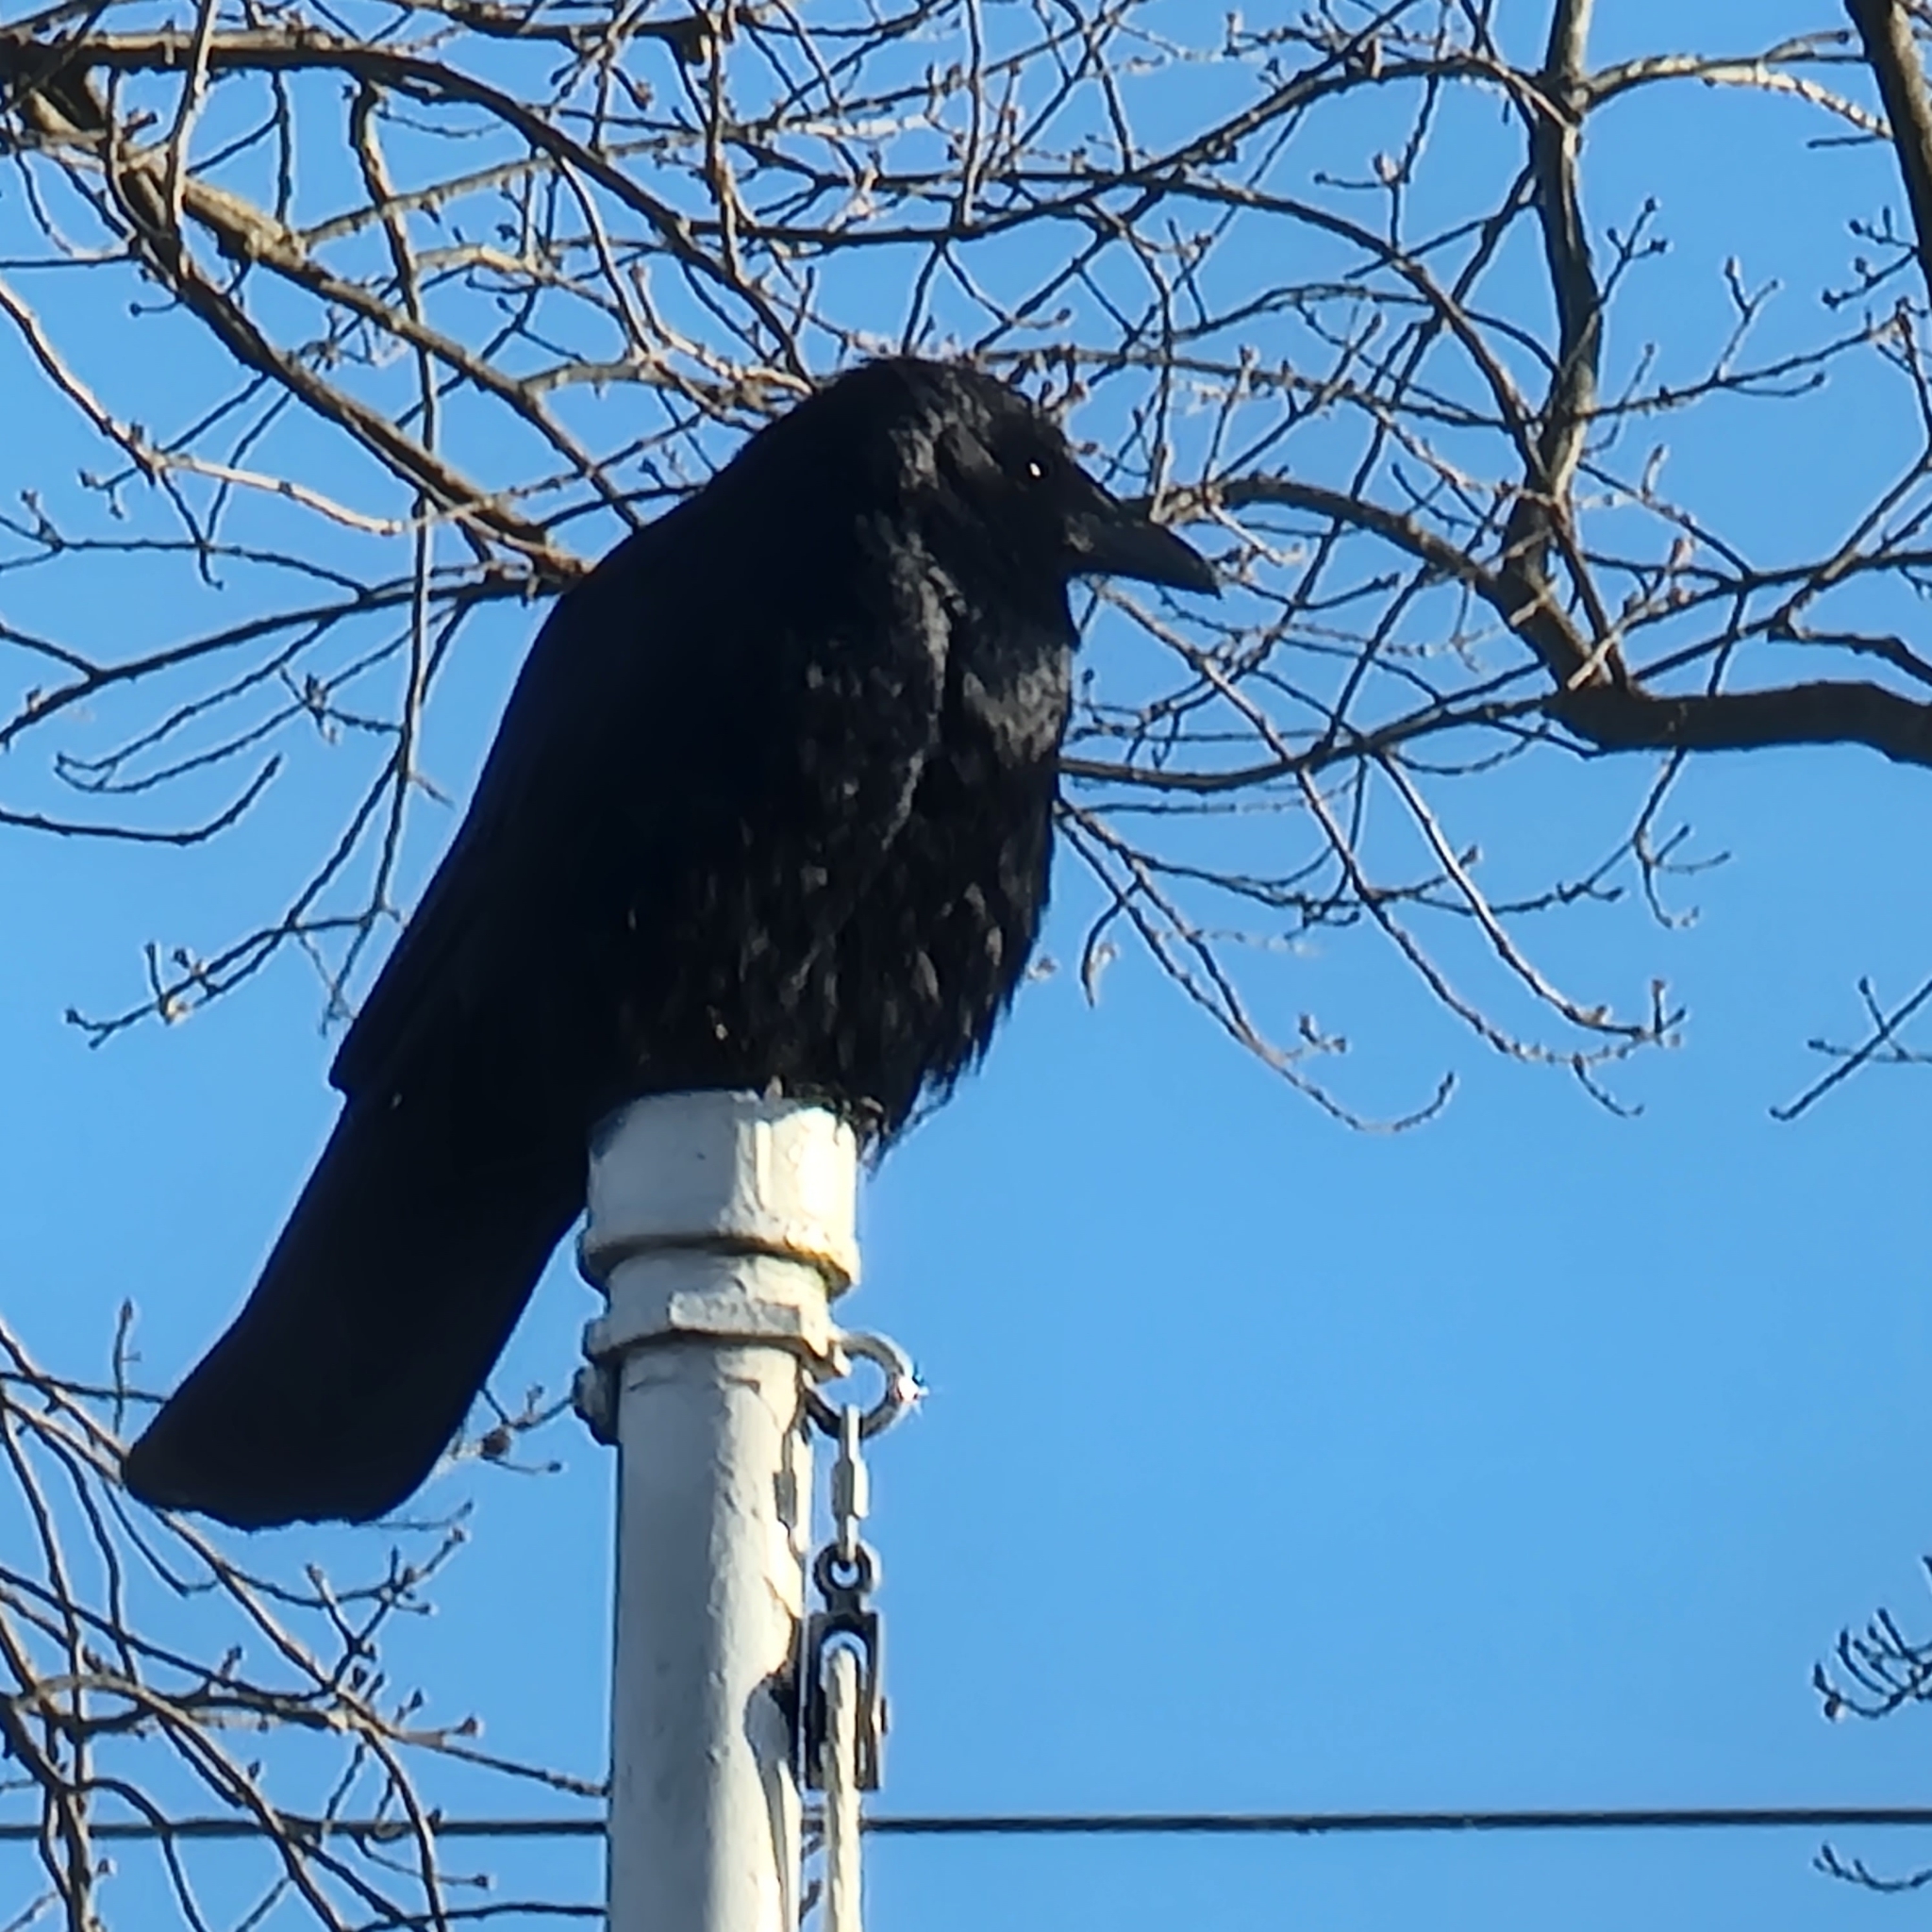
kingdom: Animalia
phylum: Chordata
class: Aves
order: Passeriformes
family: Corvidae
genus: Corvus
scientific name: Corvus brachyrhynchos
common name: American crow
